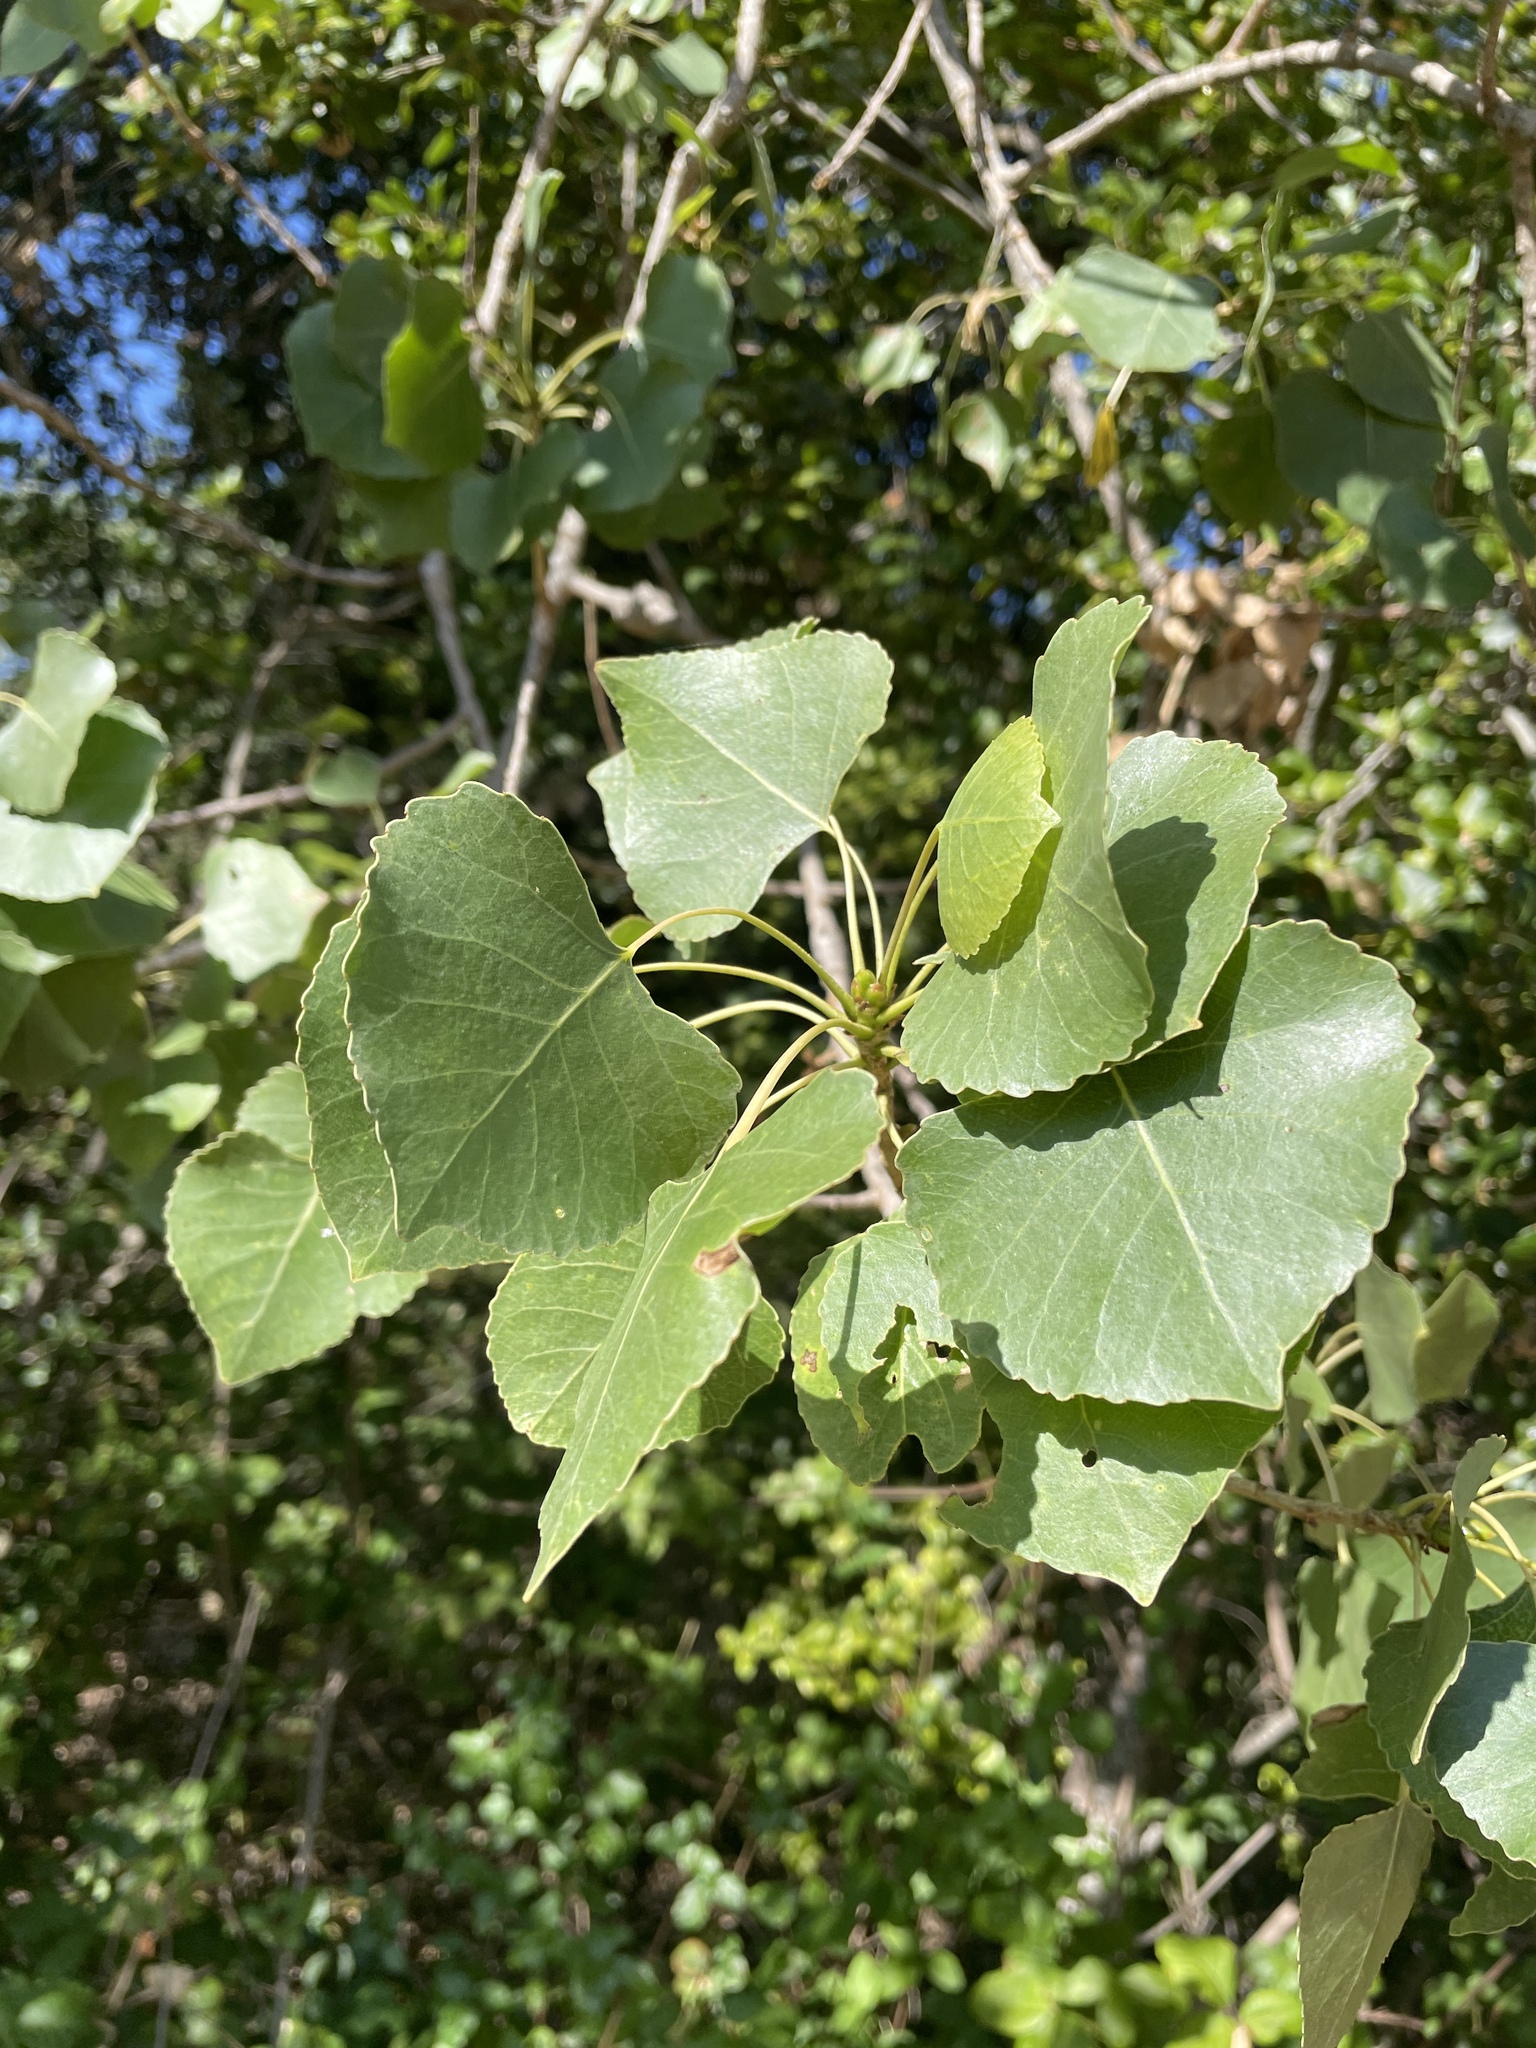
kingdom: Plantae
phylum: Tracheophyta
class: Magnoliopsida
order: Malpighiales
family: Salicaceae
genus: Populus
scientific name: Populus fremontii
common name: Fremont's cottonwood
